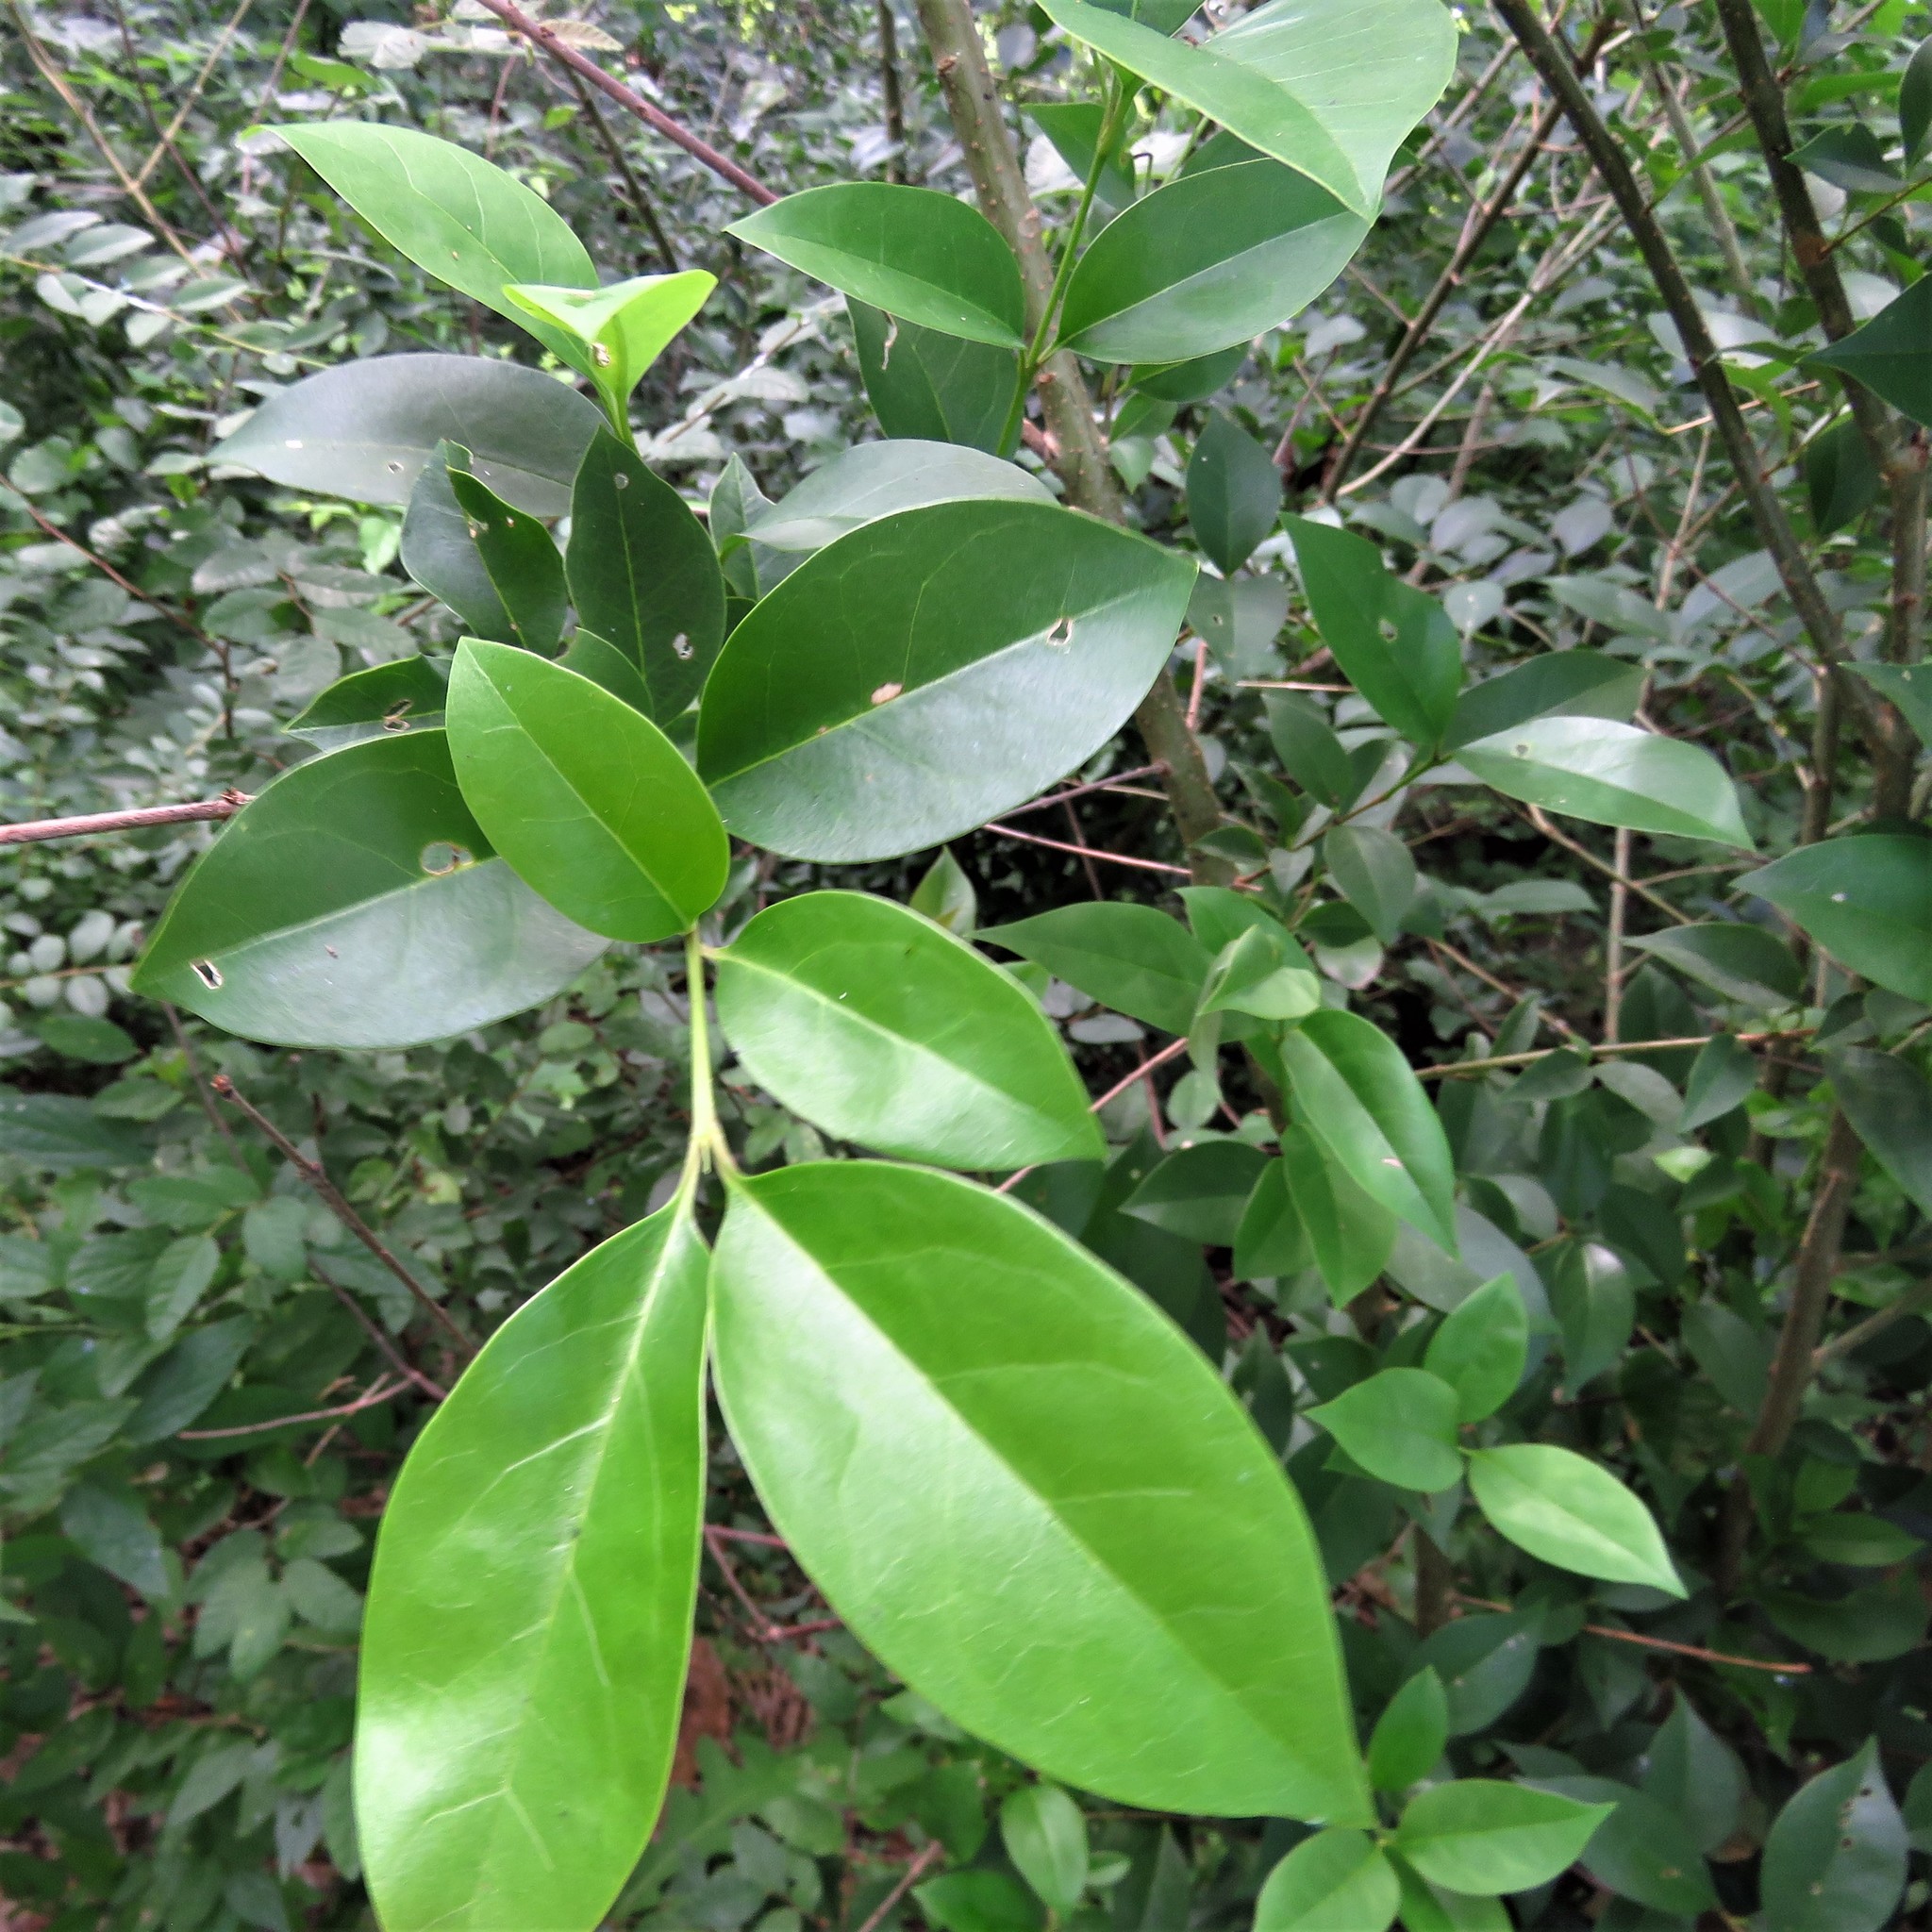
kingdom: Plantae
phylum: Tracheophyta
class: Magnoliopsida
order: Lamiales
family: Oleaceae
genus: Ligustrum
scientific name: Ligustrum lucidum
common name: Glossy privet
